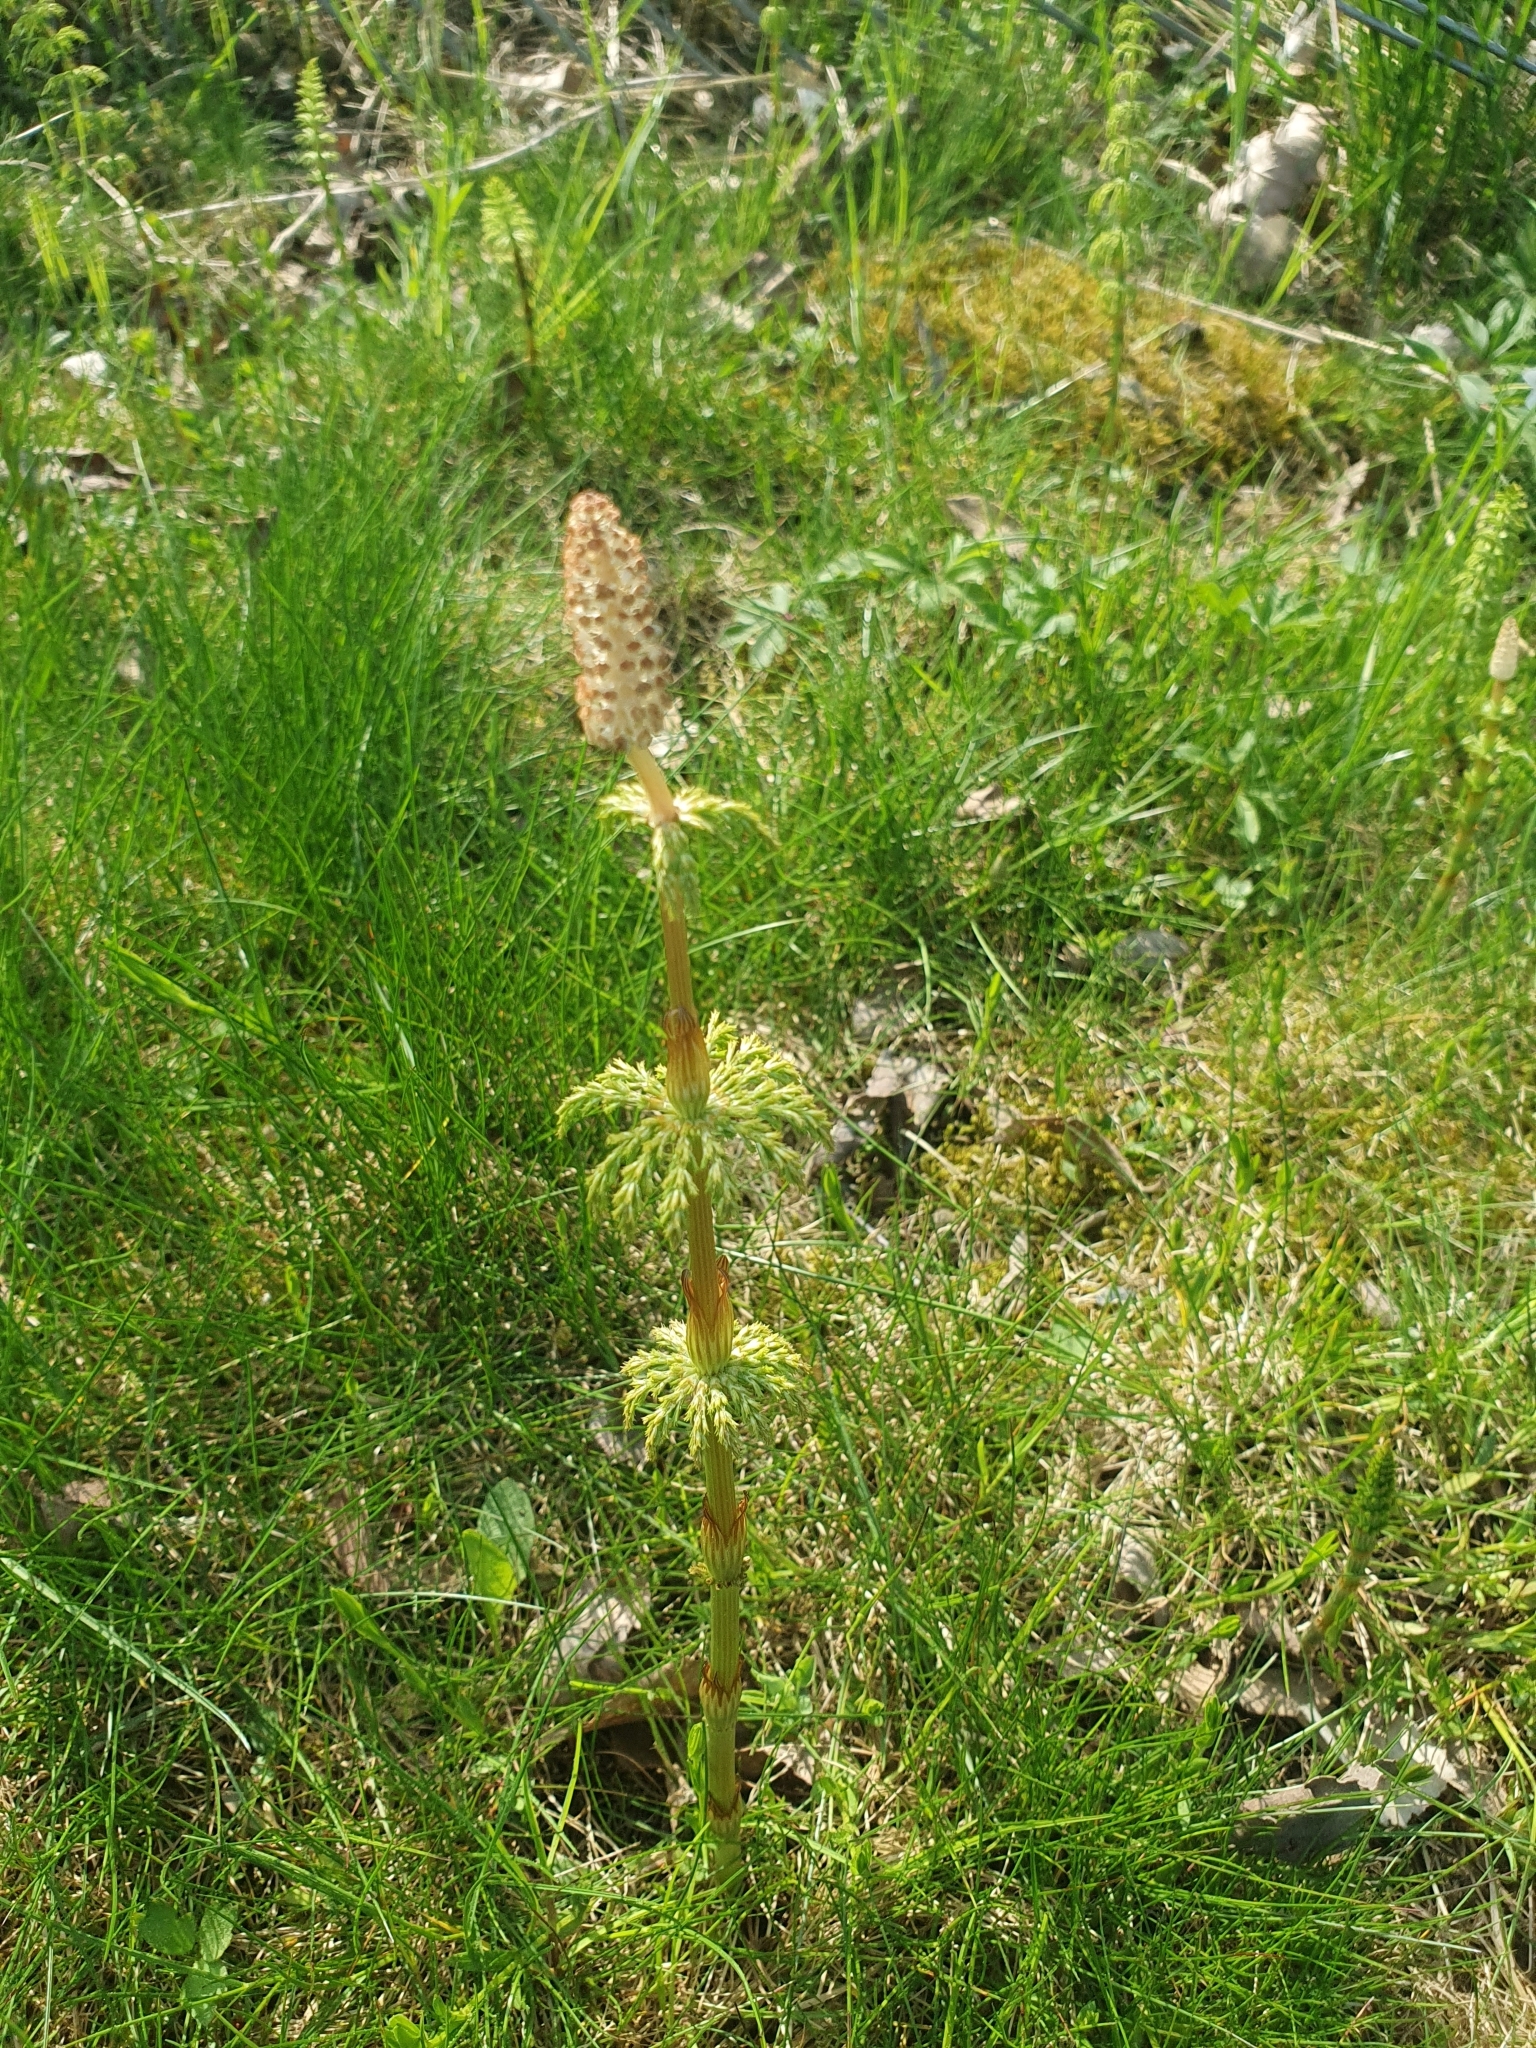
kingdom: Plantae
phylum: Tracheophyta
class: Polypodiopsida
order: Equisetales
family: Equisetaceae
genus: Equisetum
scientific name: Equisetum sylvaticum
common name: Wood horsetail
